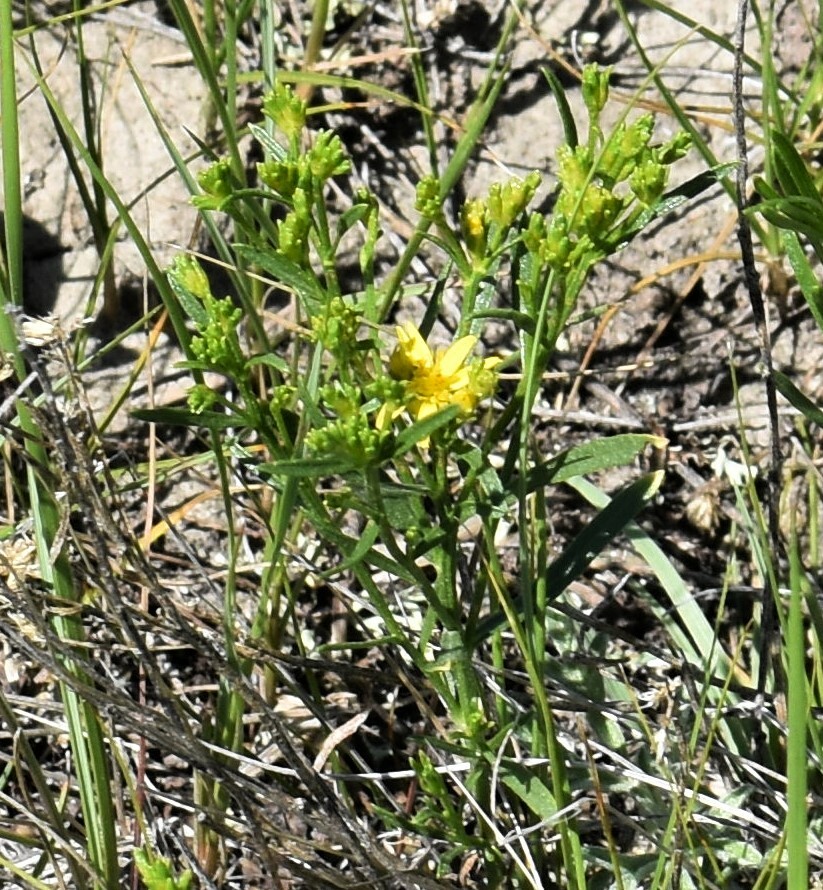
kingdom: Plantae
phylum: Tracheophyta
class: Magnoliopsida
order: Asterales
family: Asteraceae
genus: Gutierrezia
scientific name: Gutierrezia sarothrae
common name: Broom snakeweed
